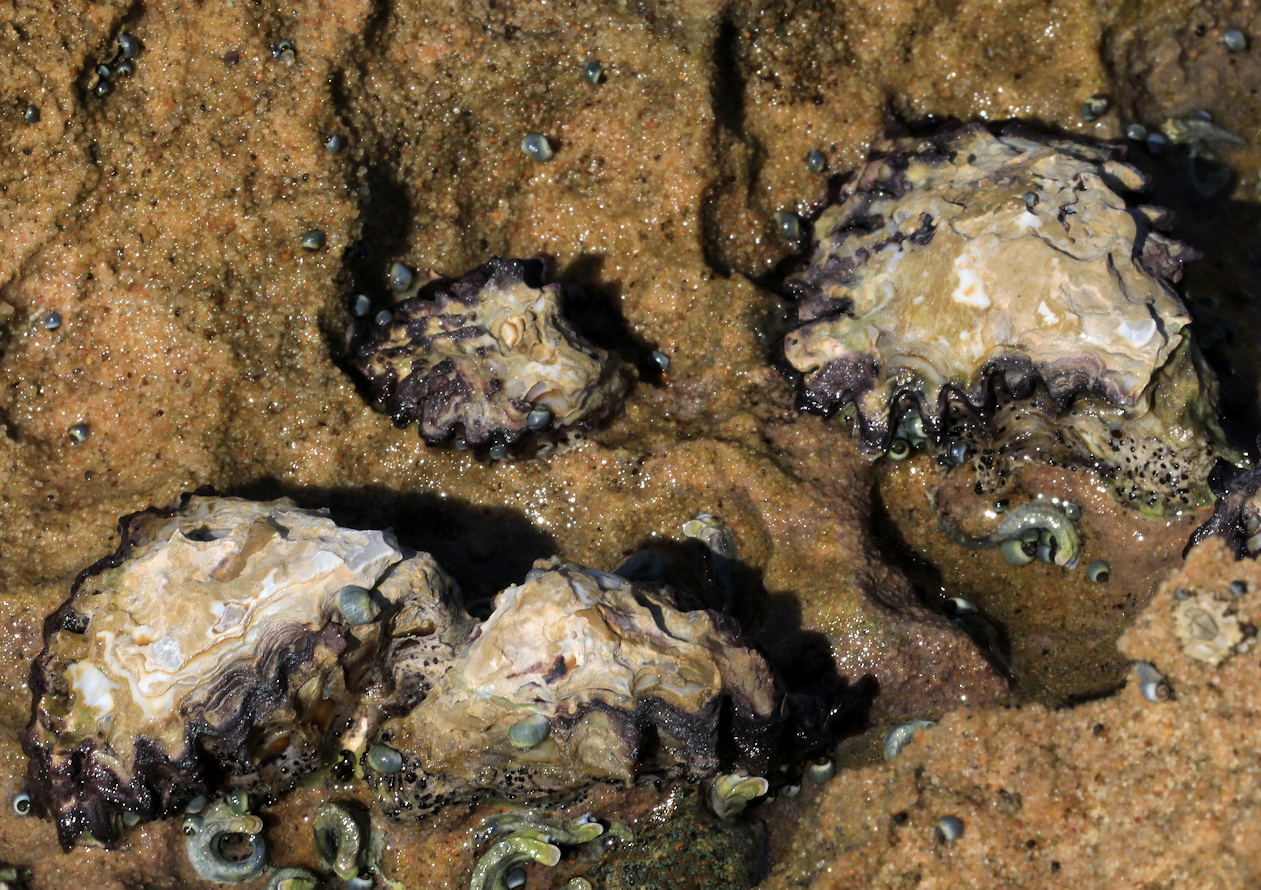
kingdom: Animalia
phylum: Mollusca
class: Bivalvia
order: Ostreida
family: Ostreidae
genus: Saccostrea
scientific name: Saccostrea cuccullata
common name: Natal rock oyster
